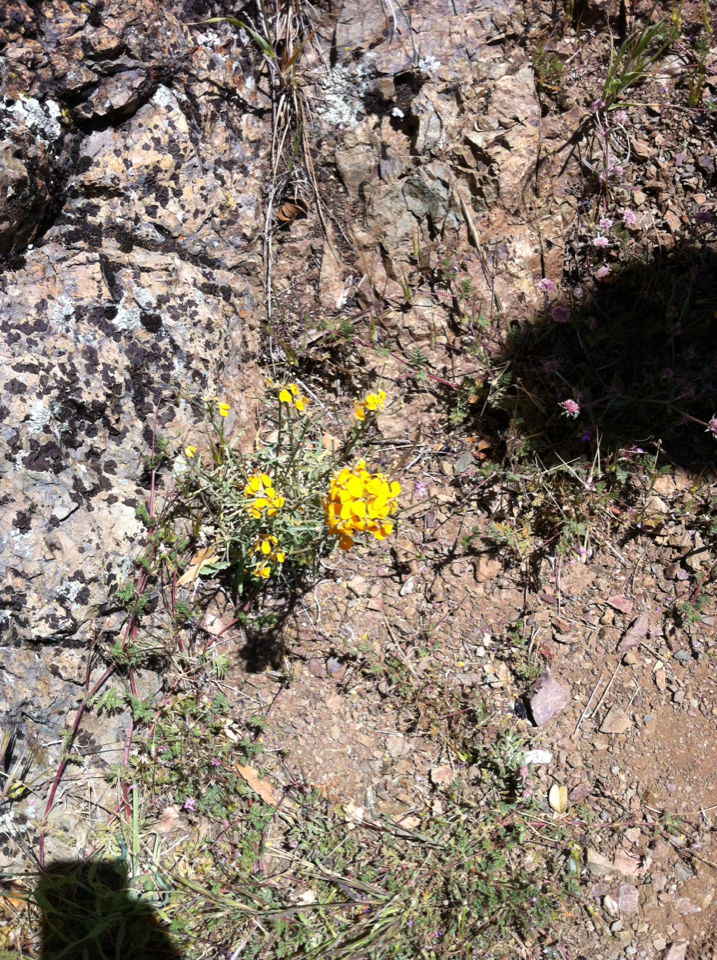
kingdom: Plantae
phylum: Tracheophyta
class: Magnoliopsida
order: Brassicales
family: Brassicaceae
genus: Erysimum
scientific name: Erysimum capitatum
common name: Western wallflower
